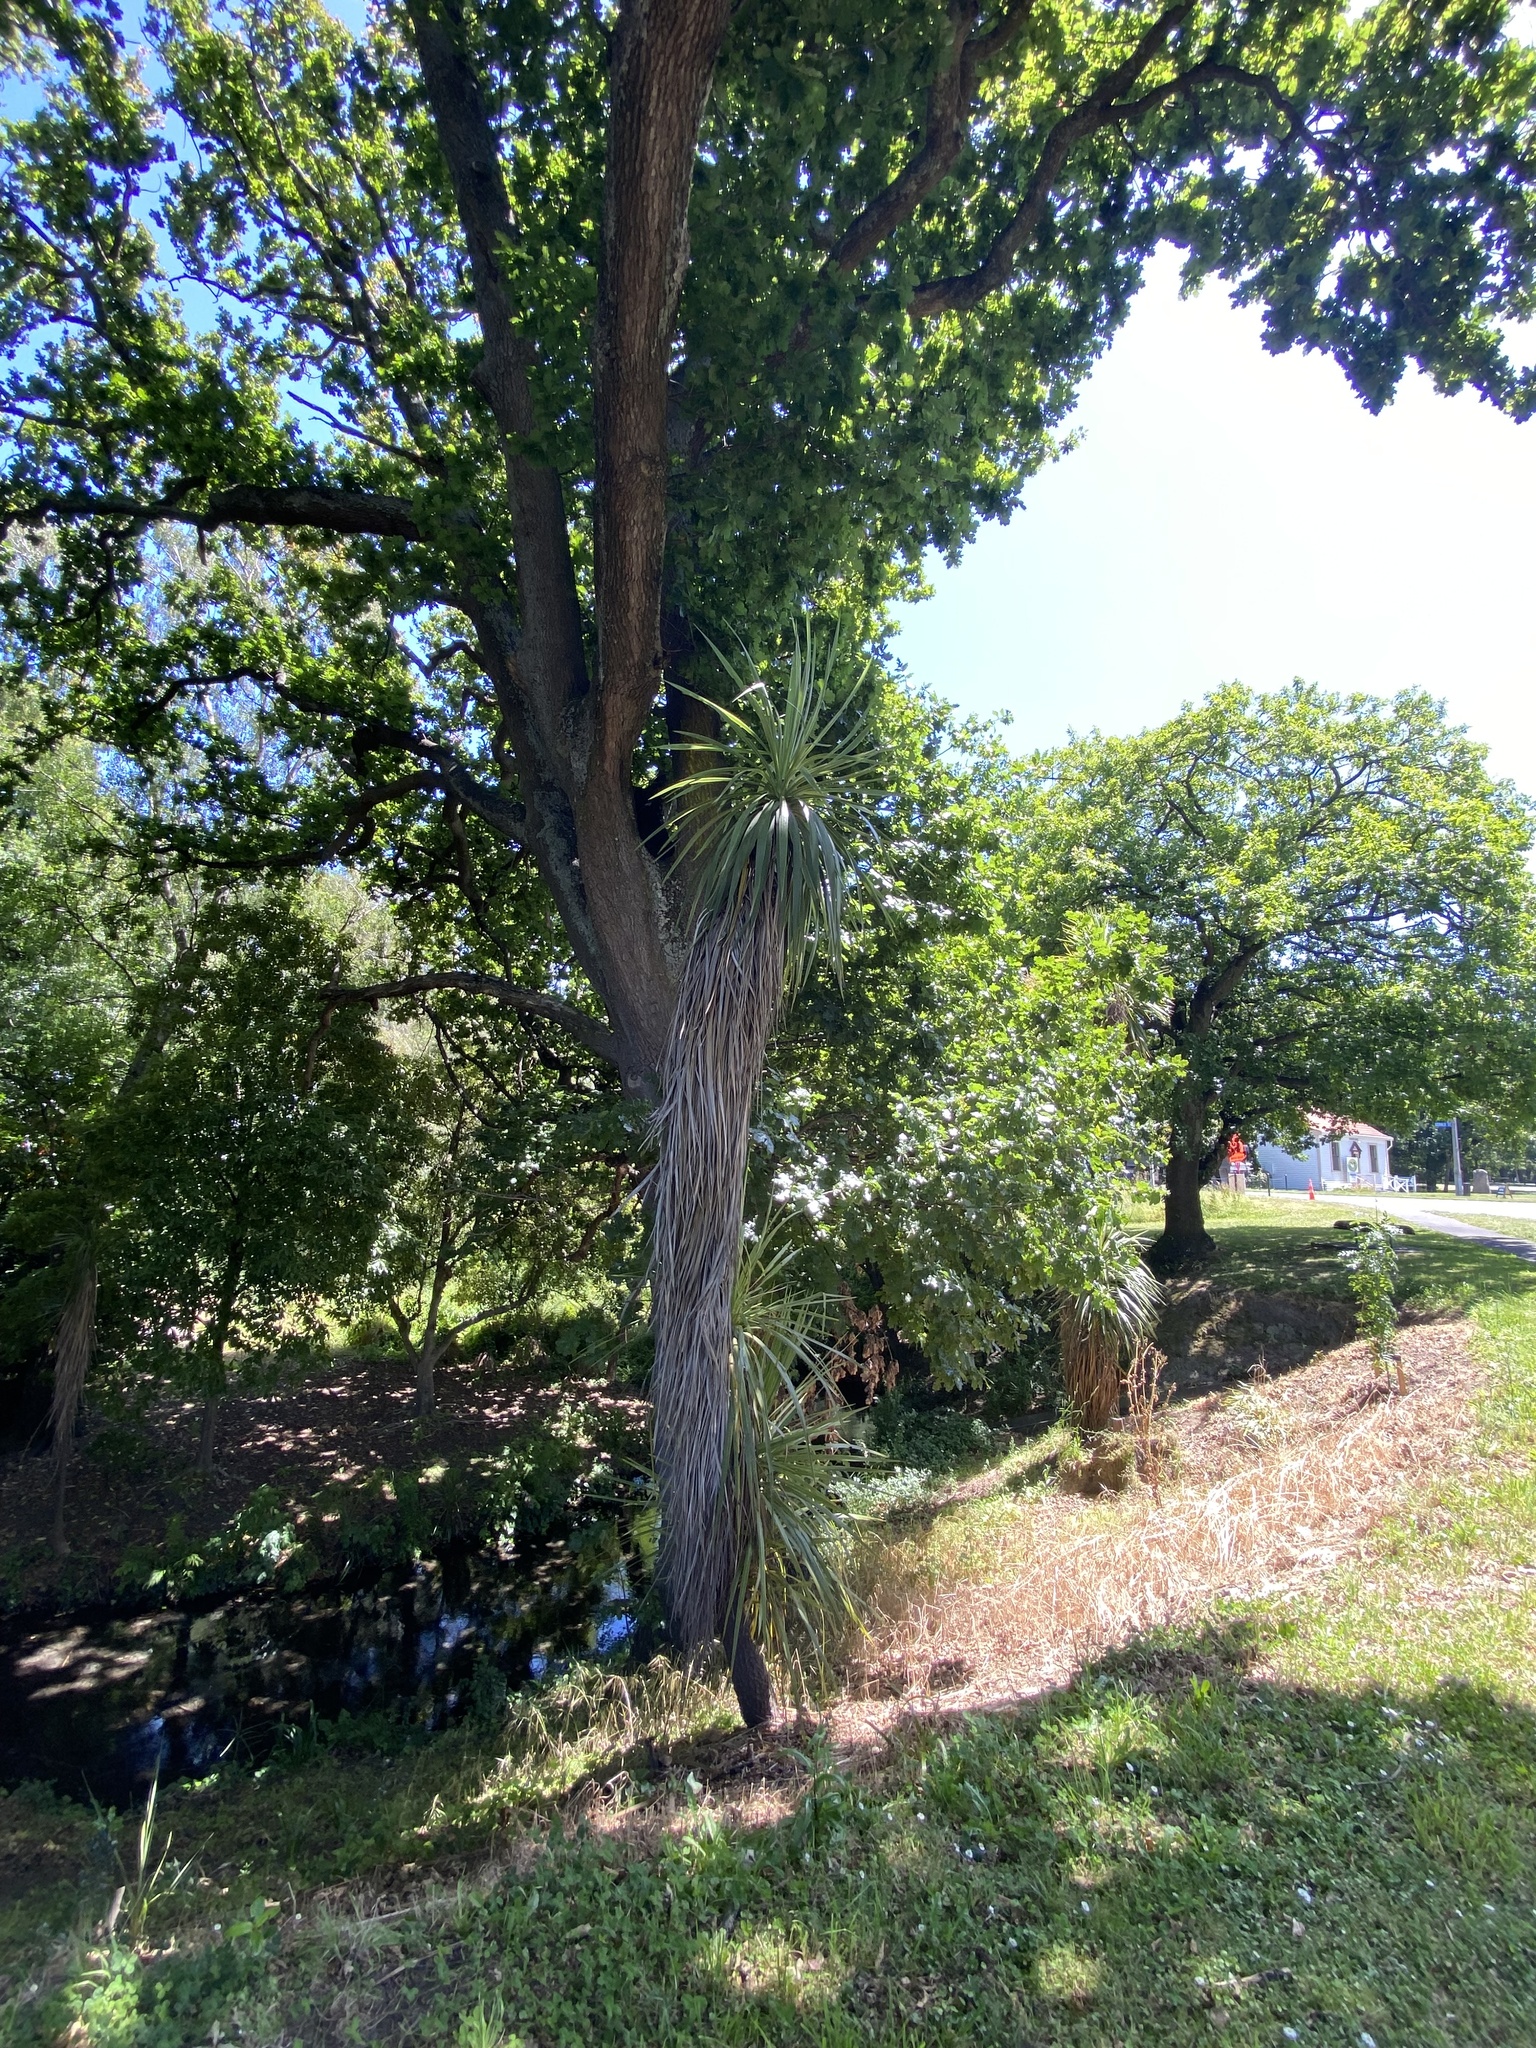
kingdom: Plantae
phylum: Tracheophyta
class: Liliopsida
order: Asparagales
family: Asparagaceae
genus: Cordyline
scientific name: Cordyline australis
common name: Cabbage-palm
